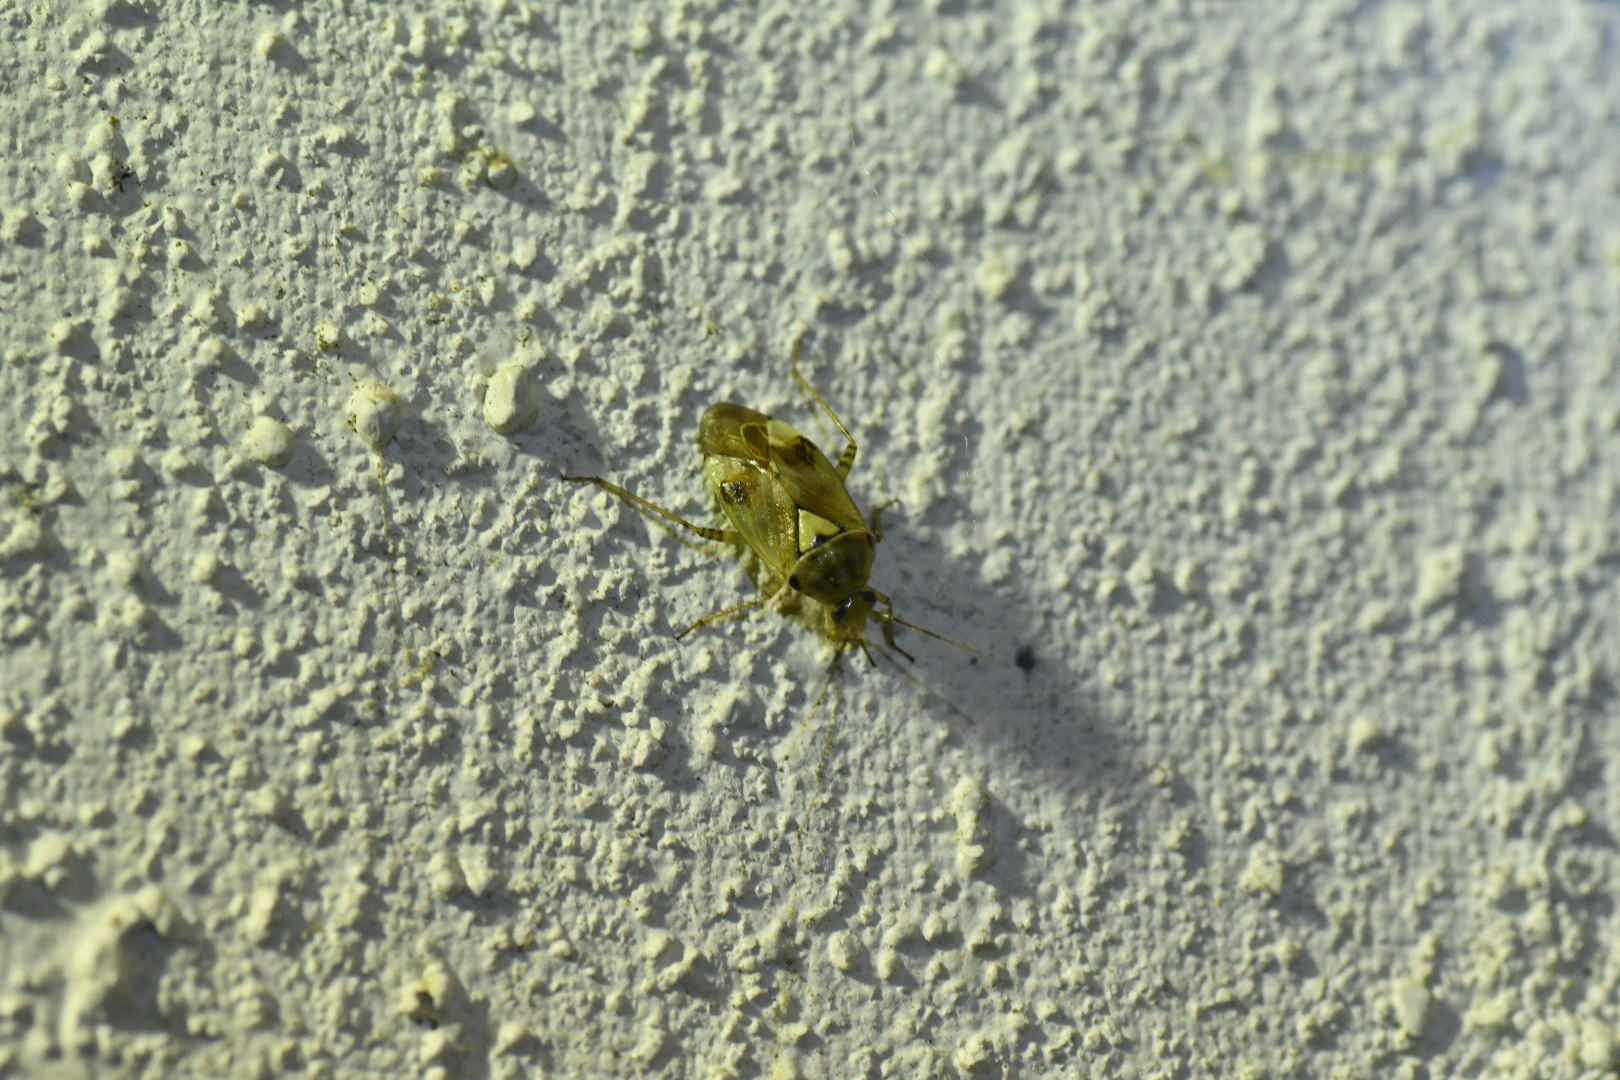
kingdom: Animalia
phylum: Arthropoda
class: Insecta
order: Hemiptera
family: Miridae
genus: Lygus
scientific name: Lygus pratensis
